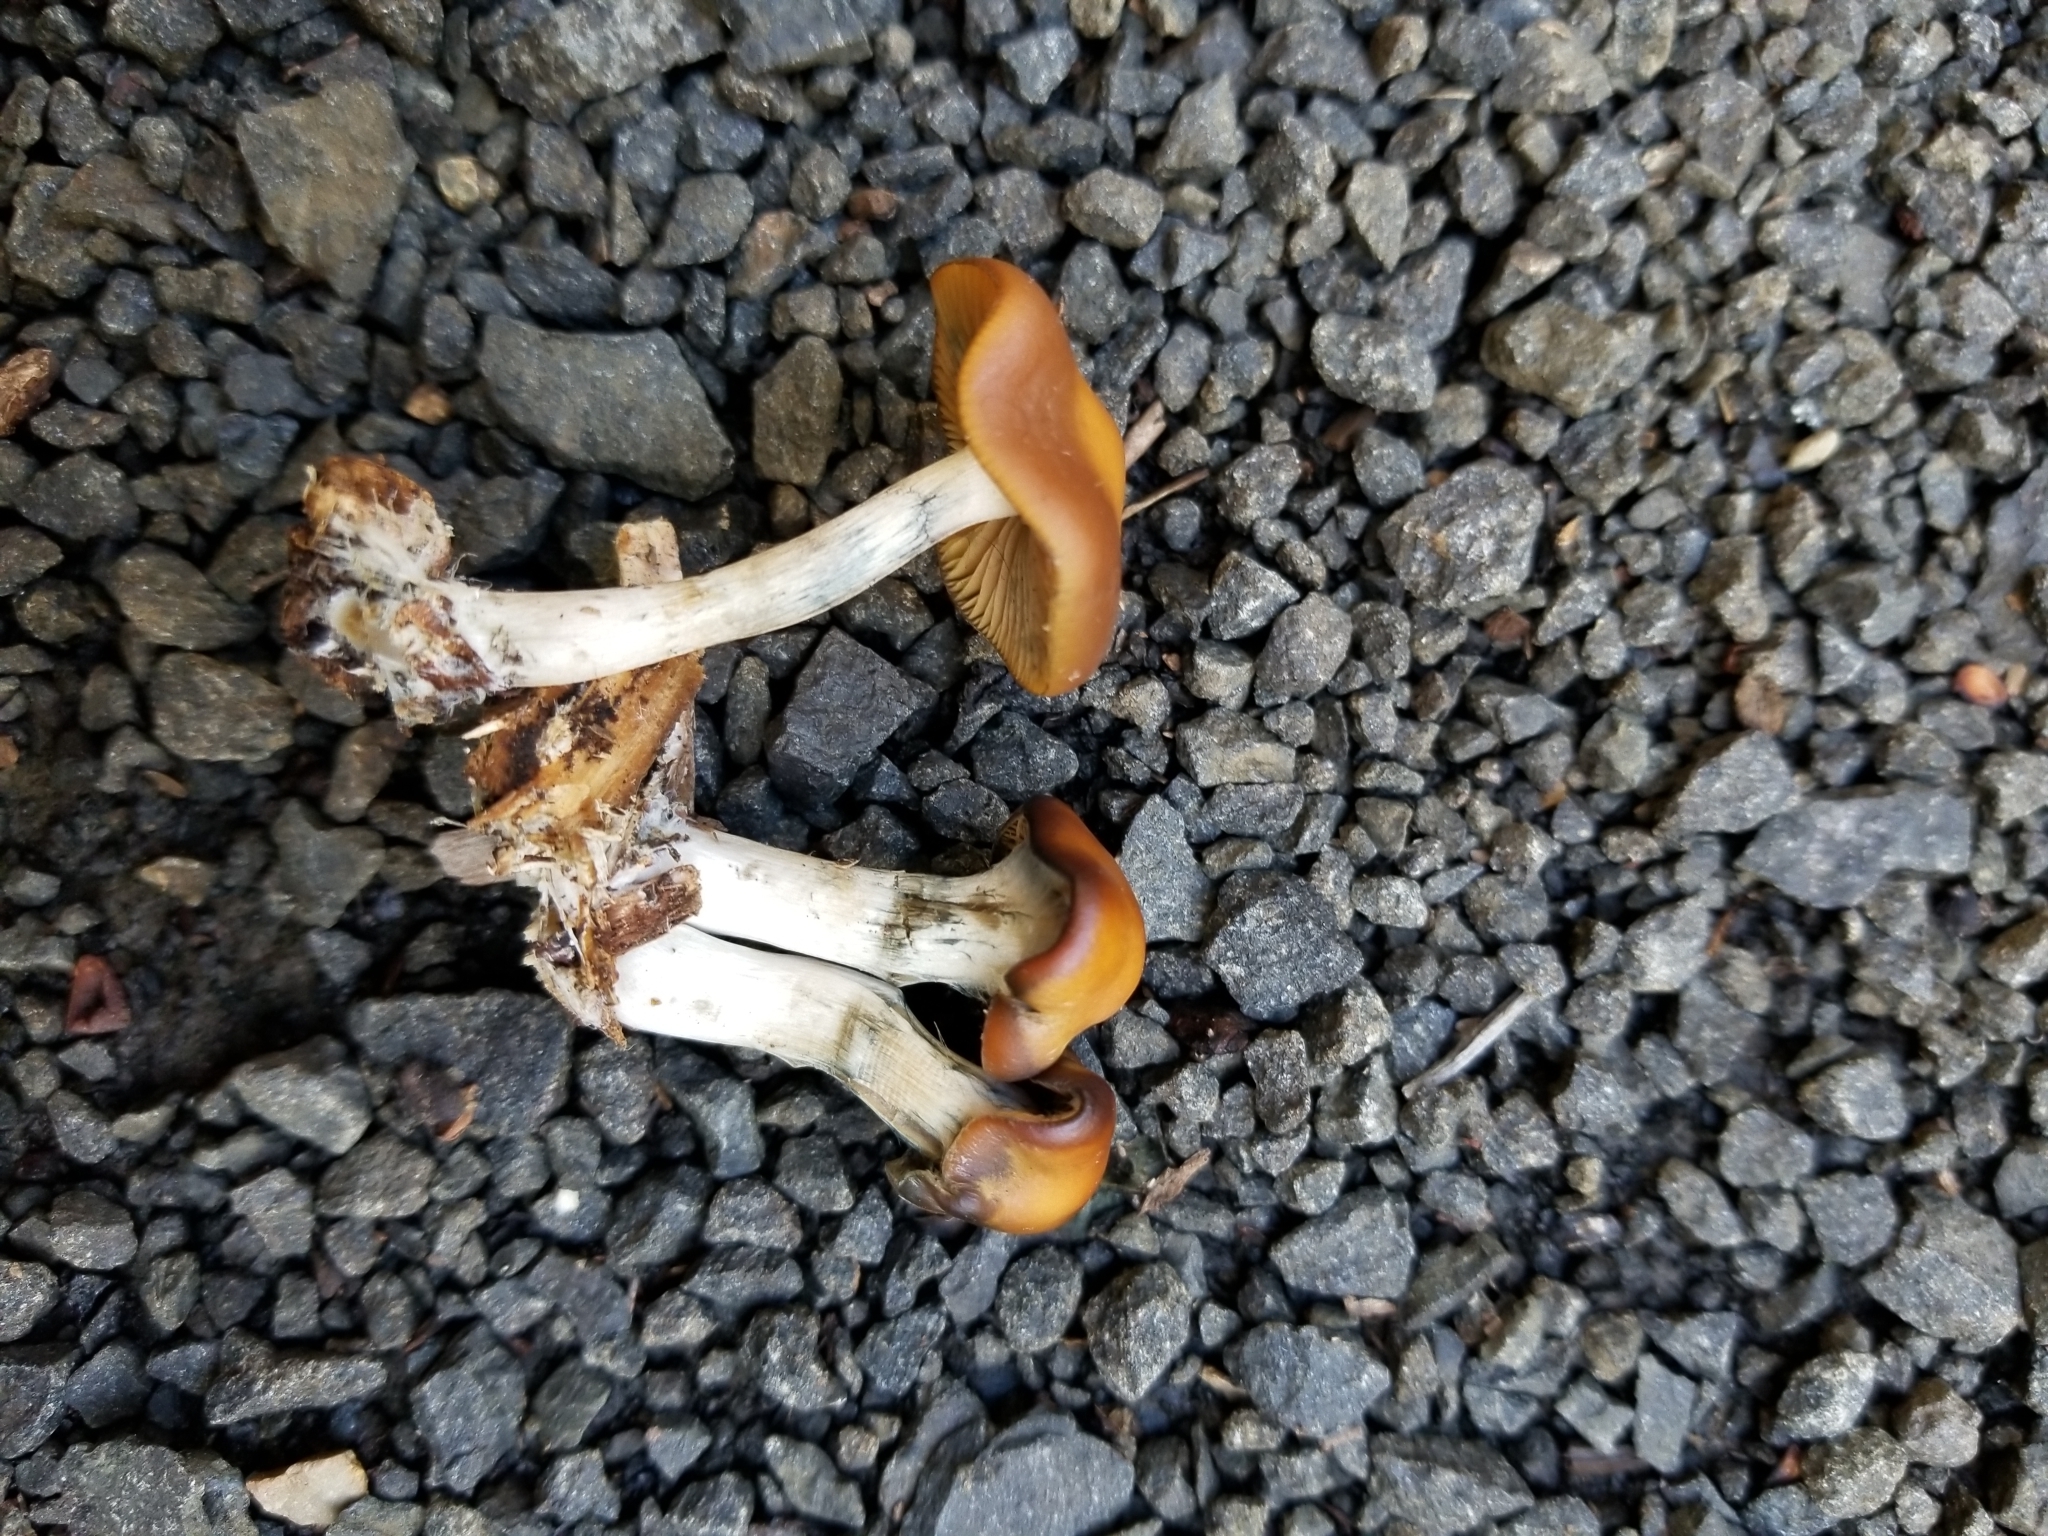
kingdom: Fungi
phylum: Basidiomycota
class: Agaricomycetes
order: Agaricales
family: Hymenogastraceae
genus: Psilocybe
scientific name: Psilocybe cyanescens
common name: Blueleg brownie
